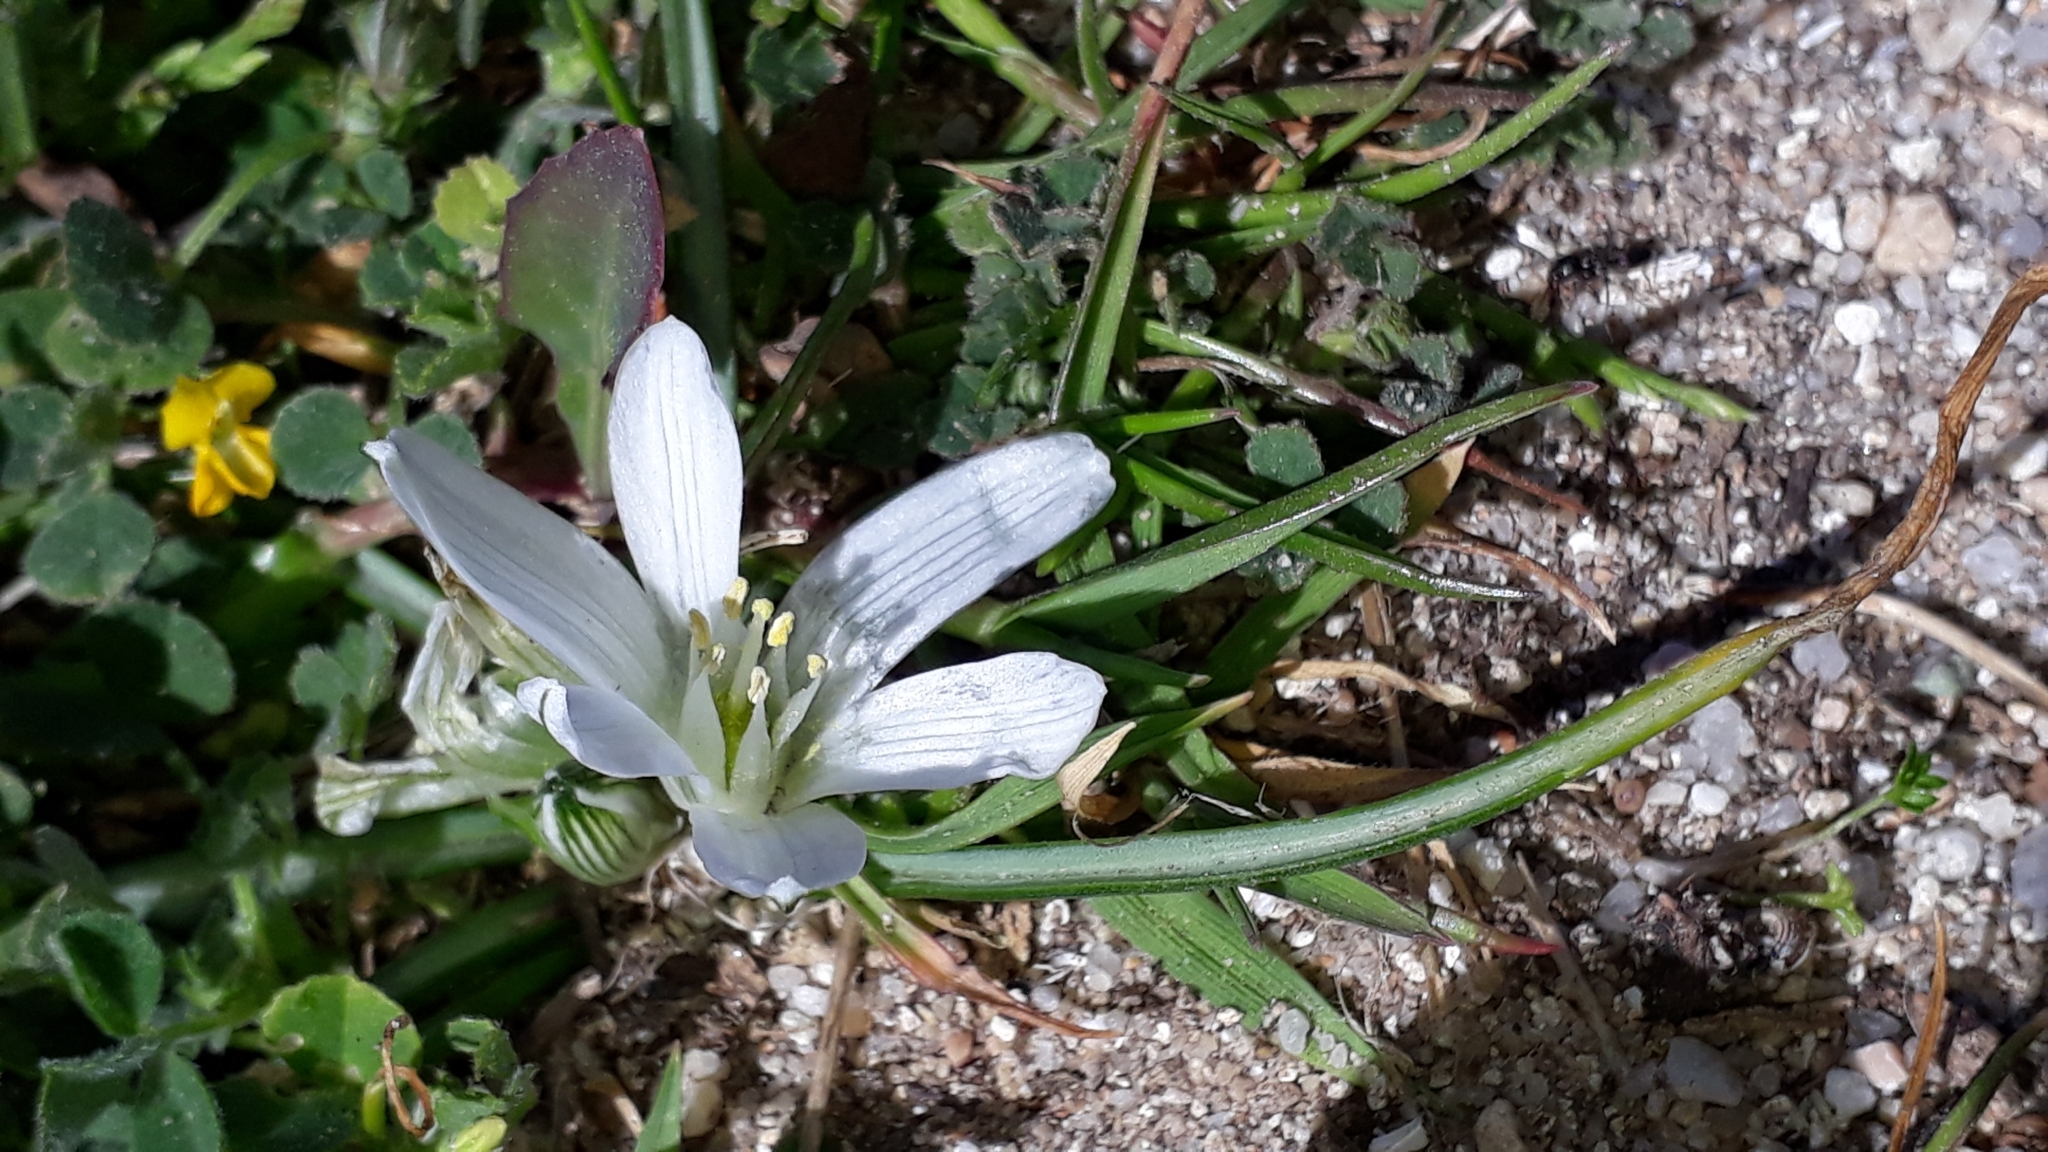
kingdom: Plantae
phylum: Tracheophyta
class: Liliopsida
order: Asparagales
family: Asparagaceae
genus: Ornithogalum
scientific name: Ornithogalum corsicum
